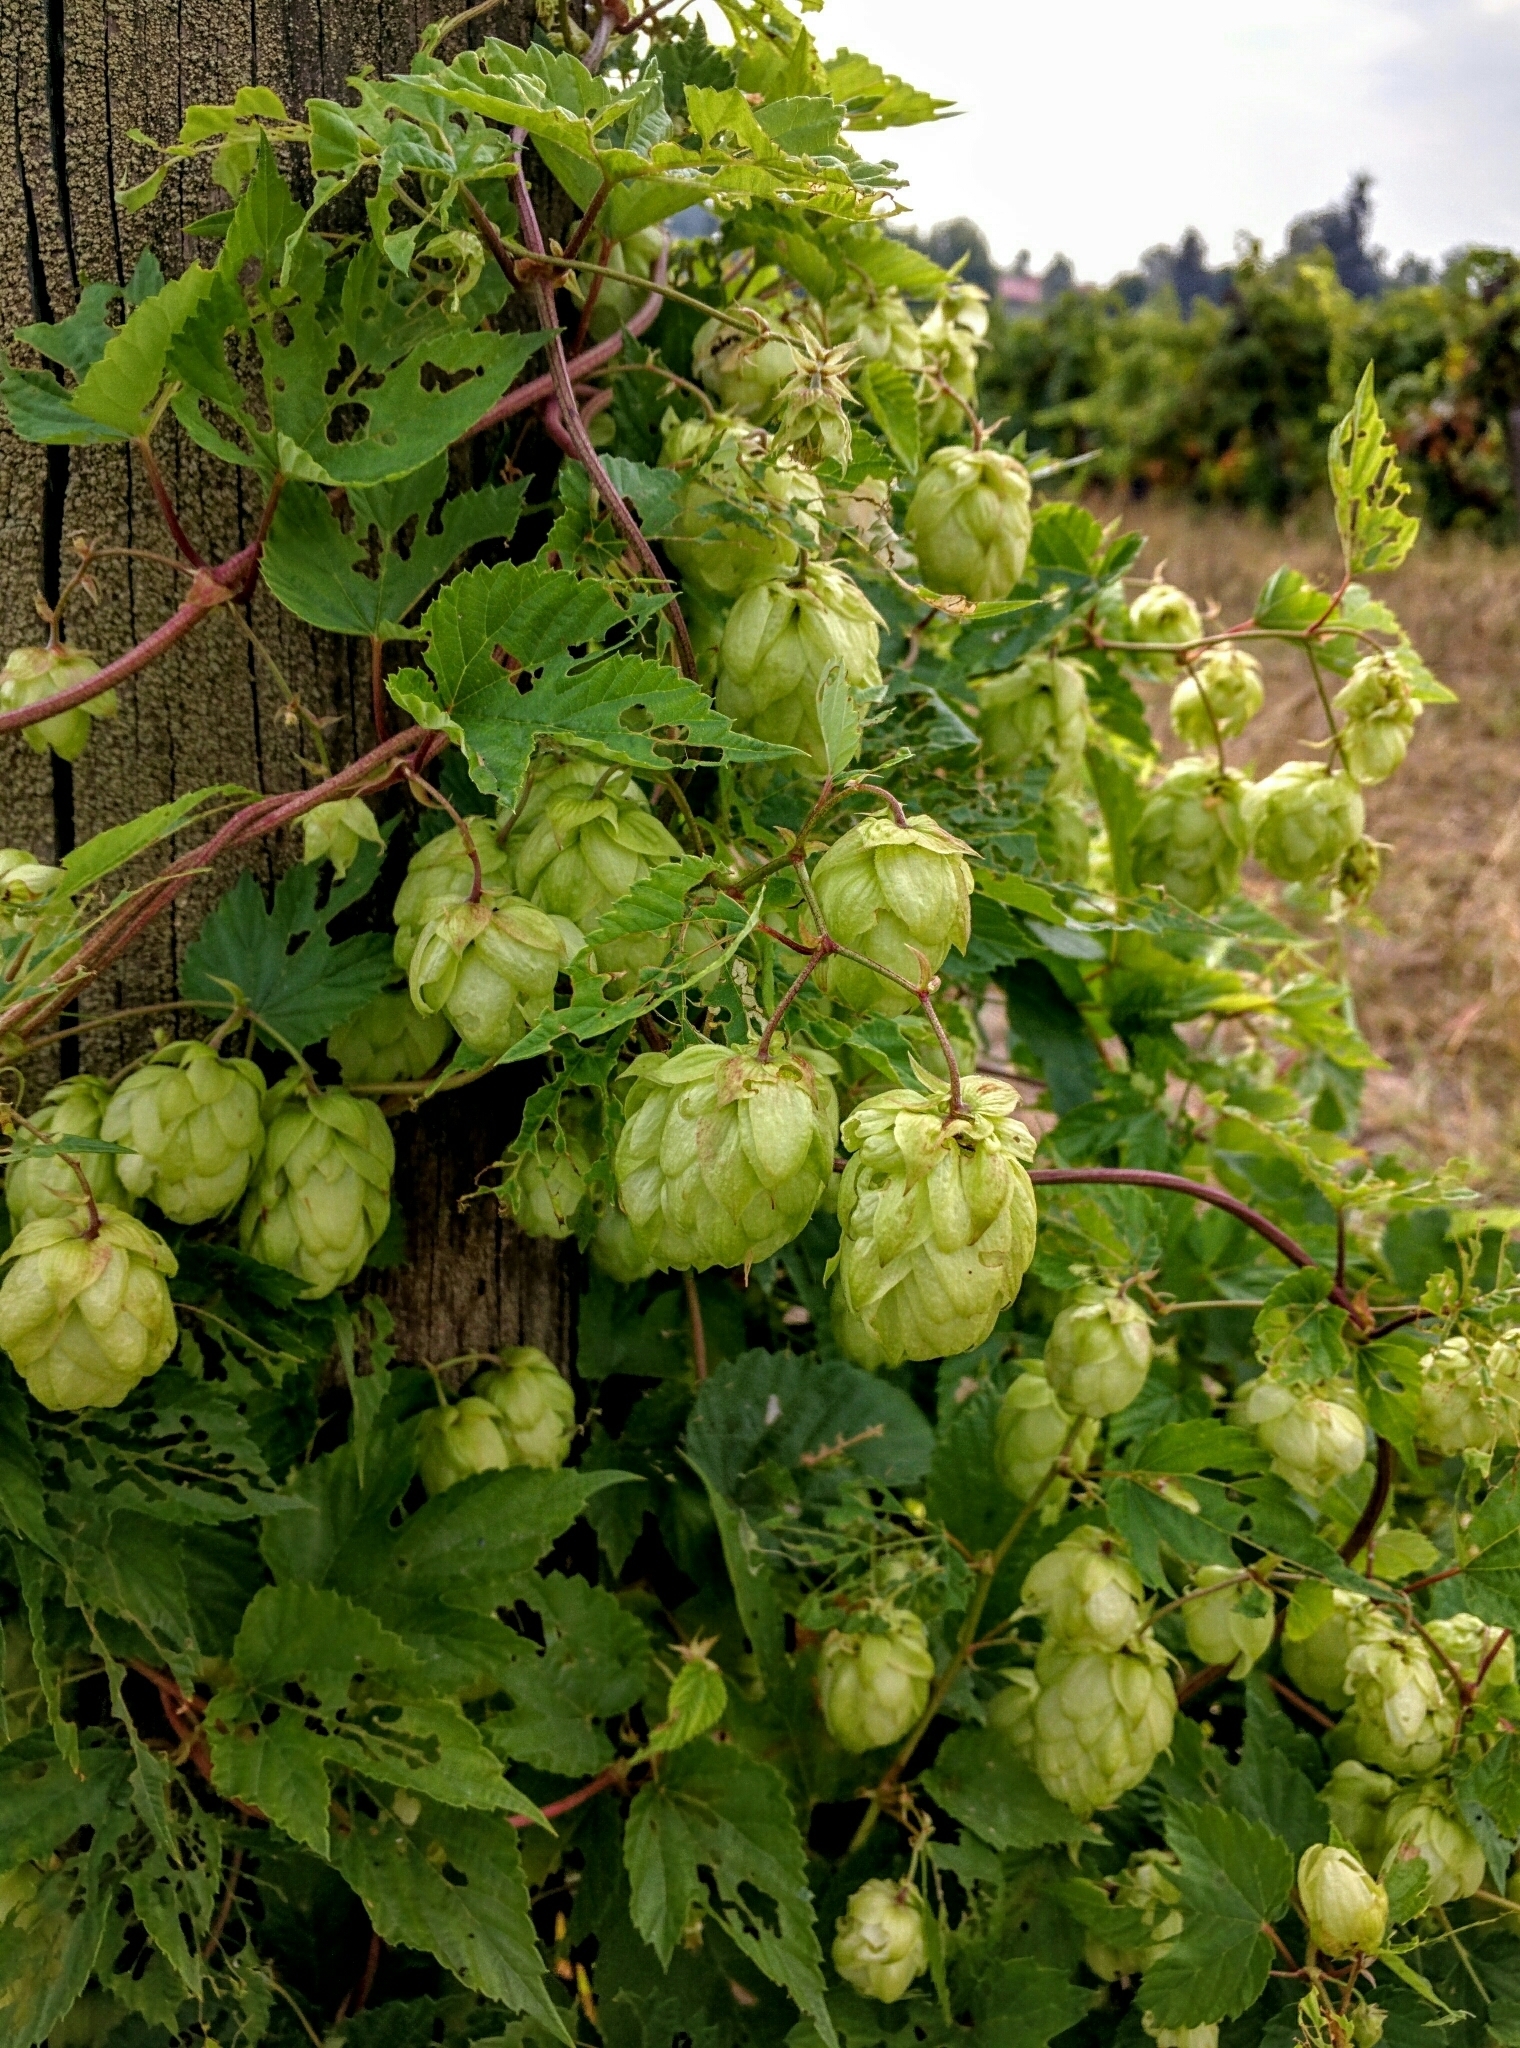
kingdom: Plantae
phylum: Tracheophyta
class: Magnoliopsida
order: Rosales
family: Cannabaceae
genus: Humulus
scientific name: Humulus lupulus
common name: Hop
